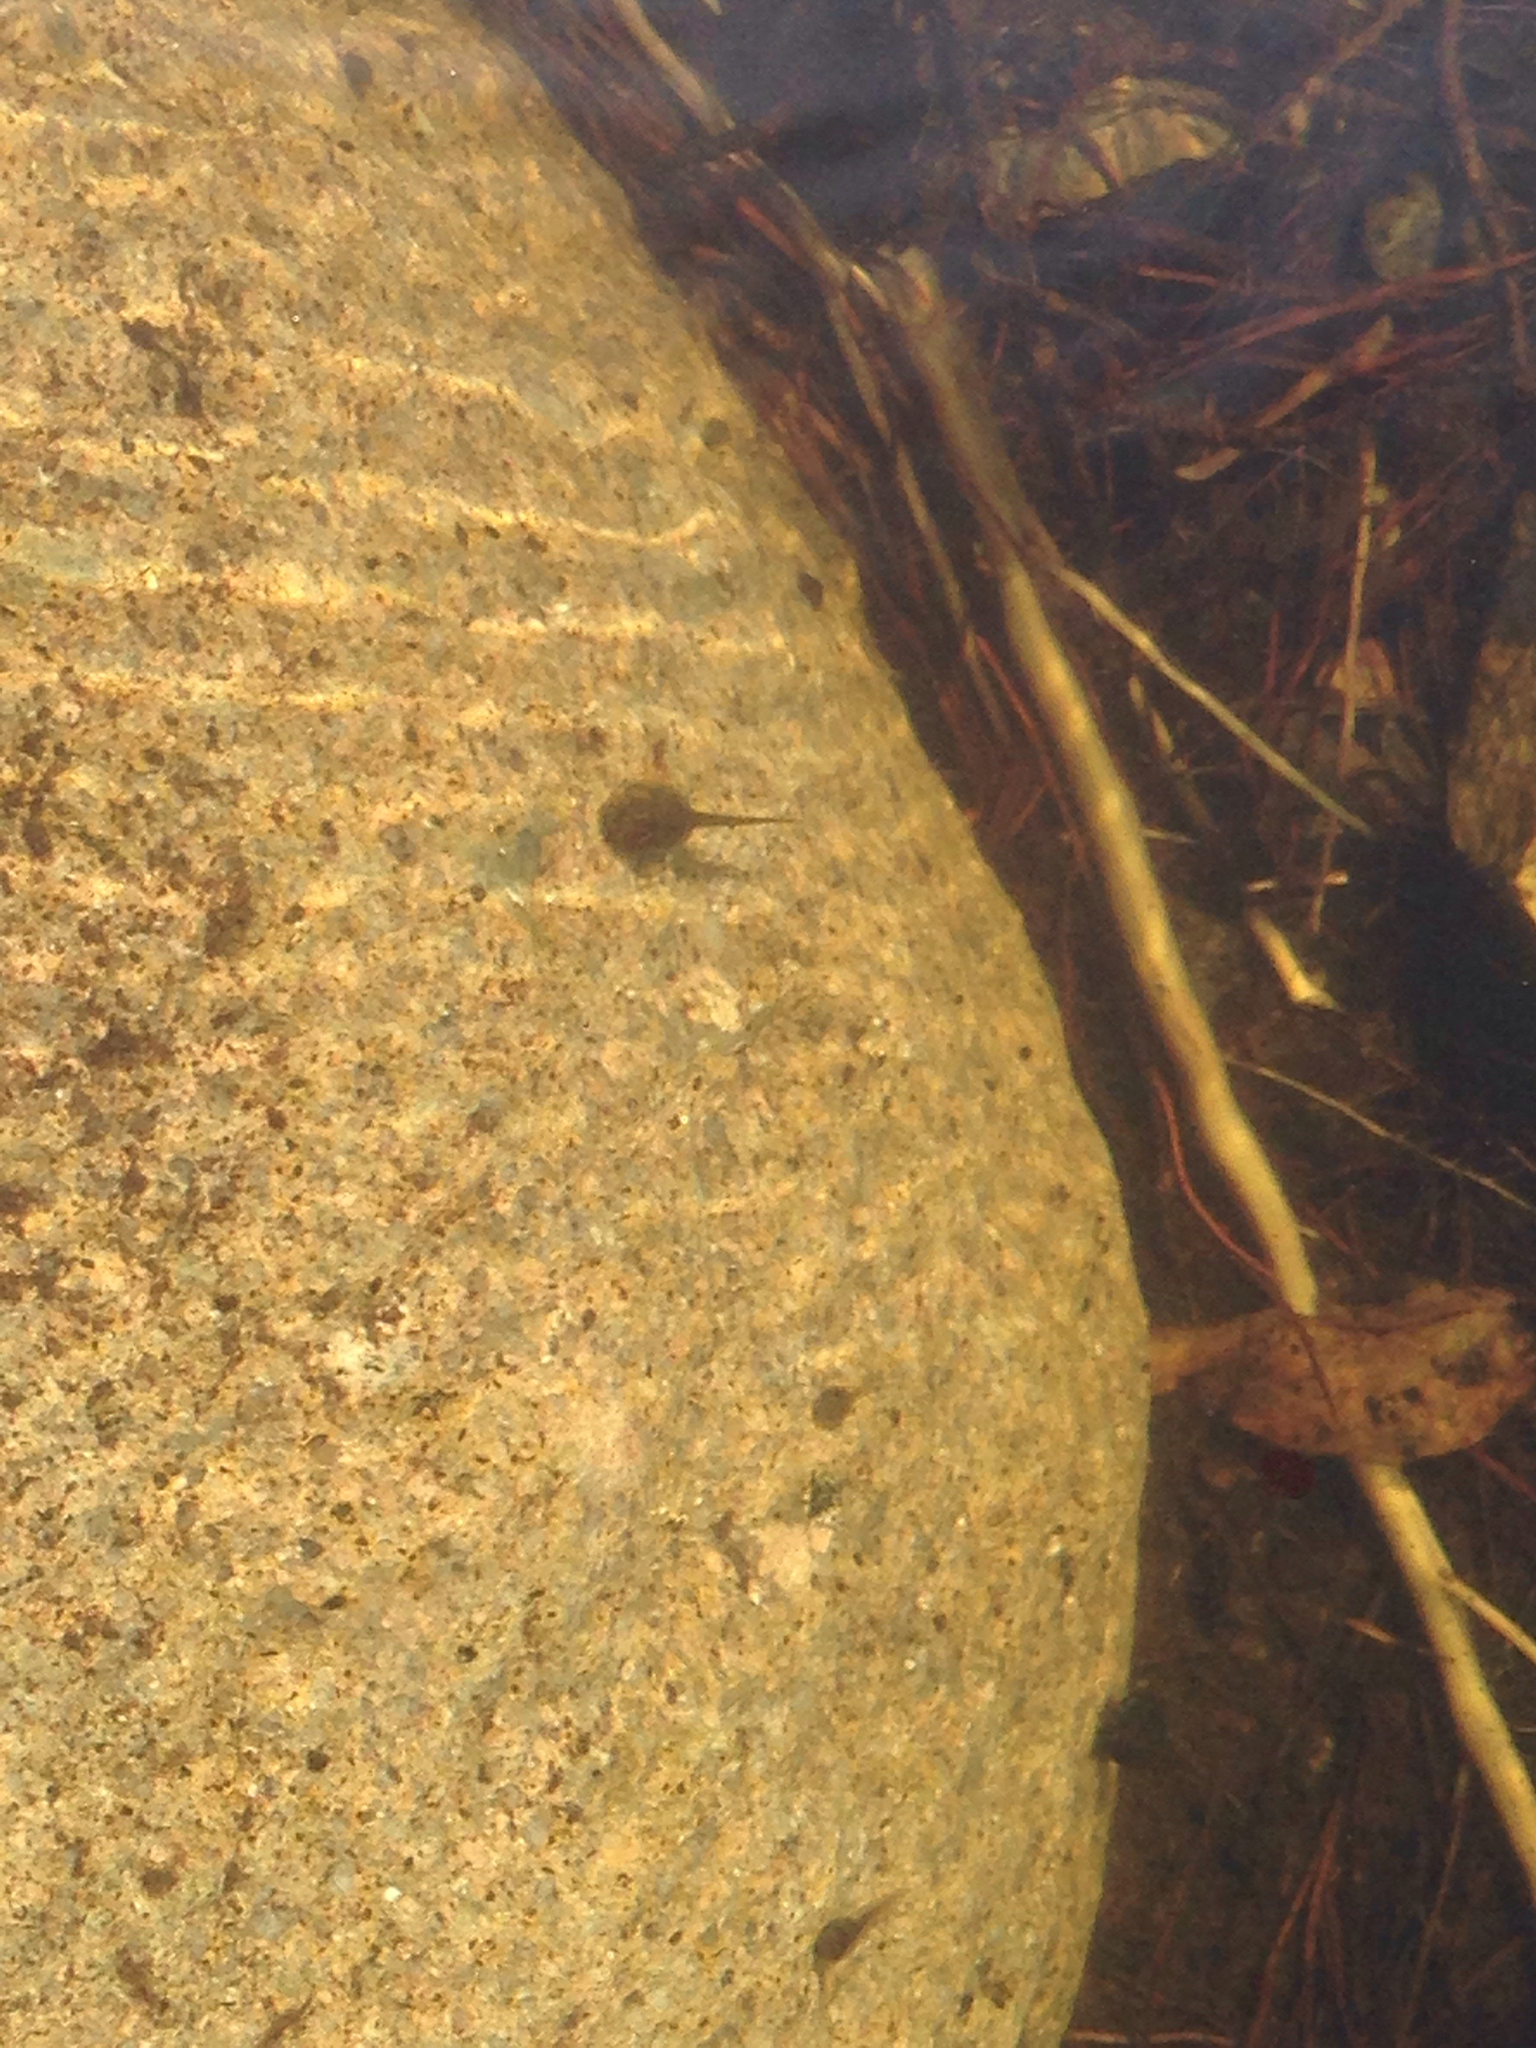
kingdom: Animalia
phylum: Chordata
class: Amphibia
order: Anura
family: Bombinatoridae
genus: Bombina
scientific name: Bombina orientalis
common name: Oriental firebelly toad
